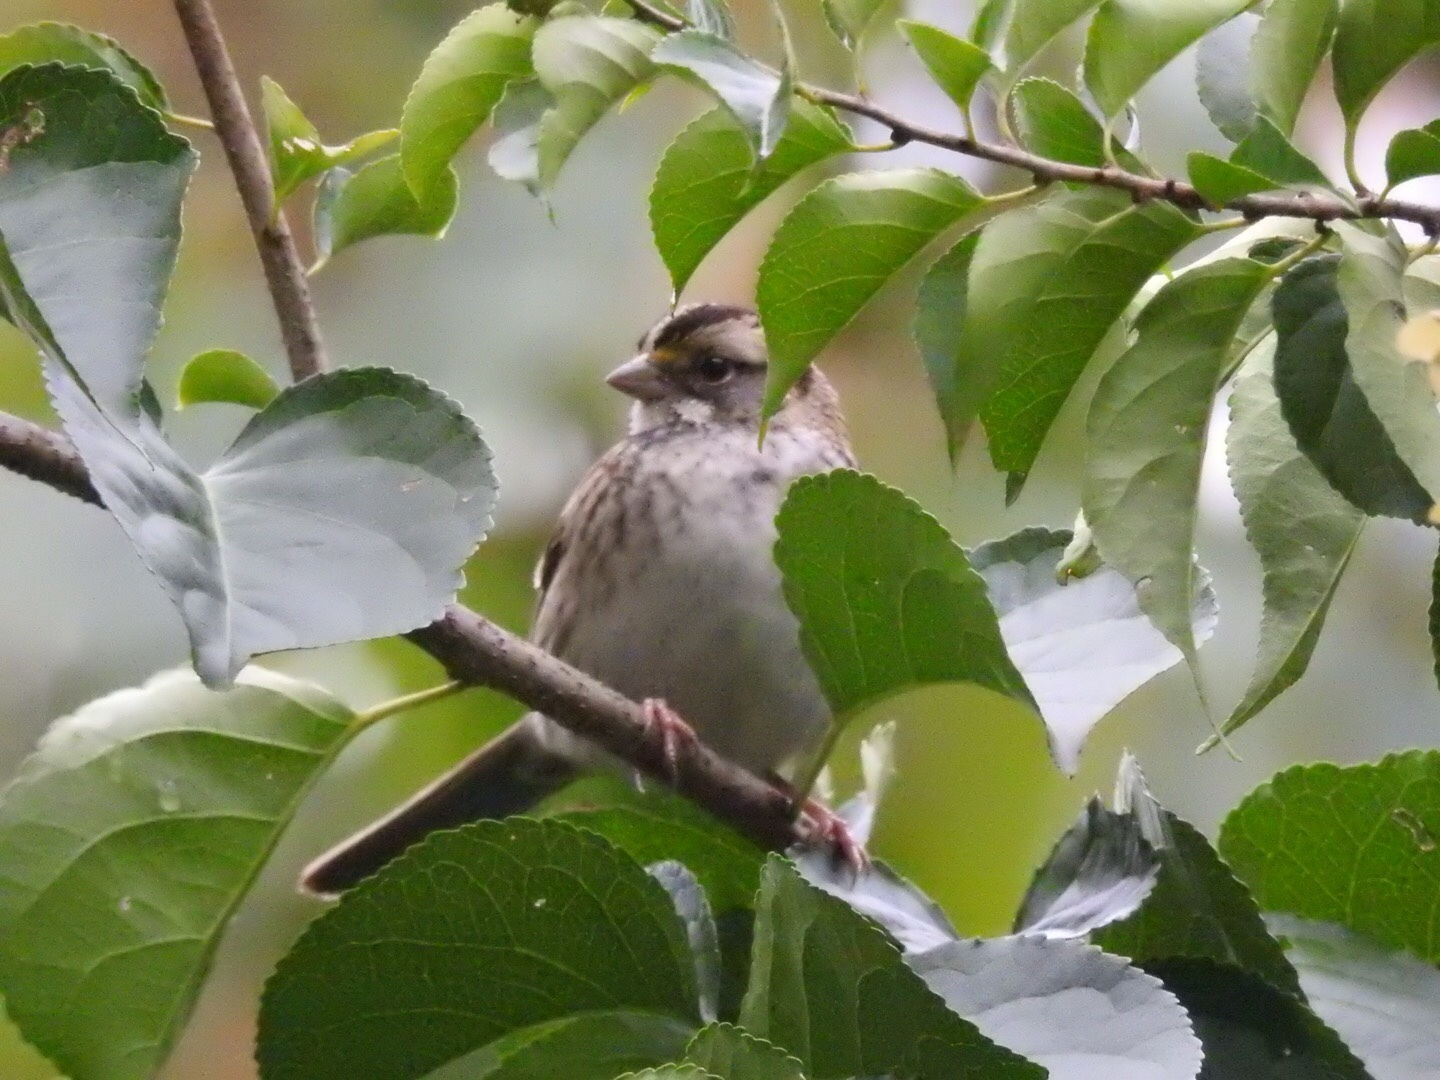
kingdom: Animalia
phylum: Chordata
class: Aves
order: Passeriformes
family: Passerellidae
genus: Zonotrichia
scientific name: Zonotrichia albicollis
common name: White-throated sparrow
